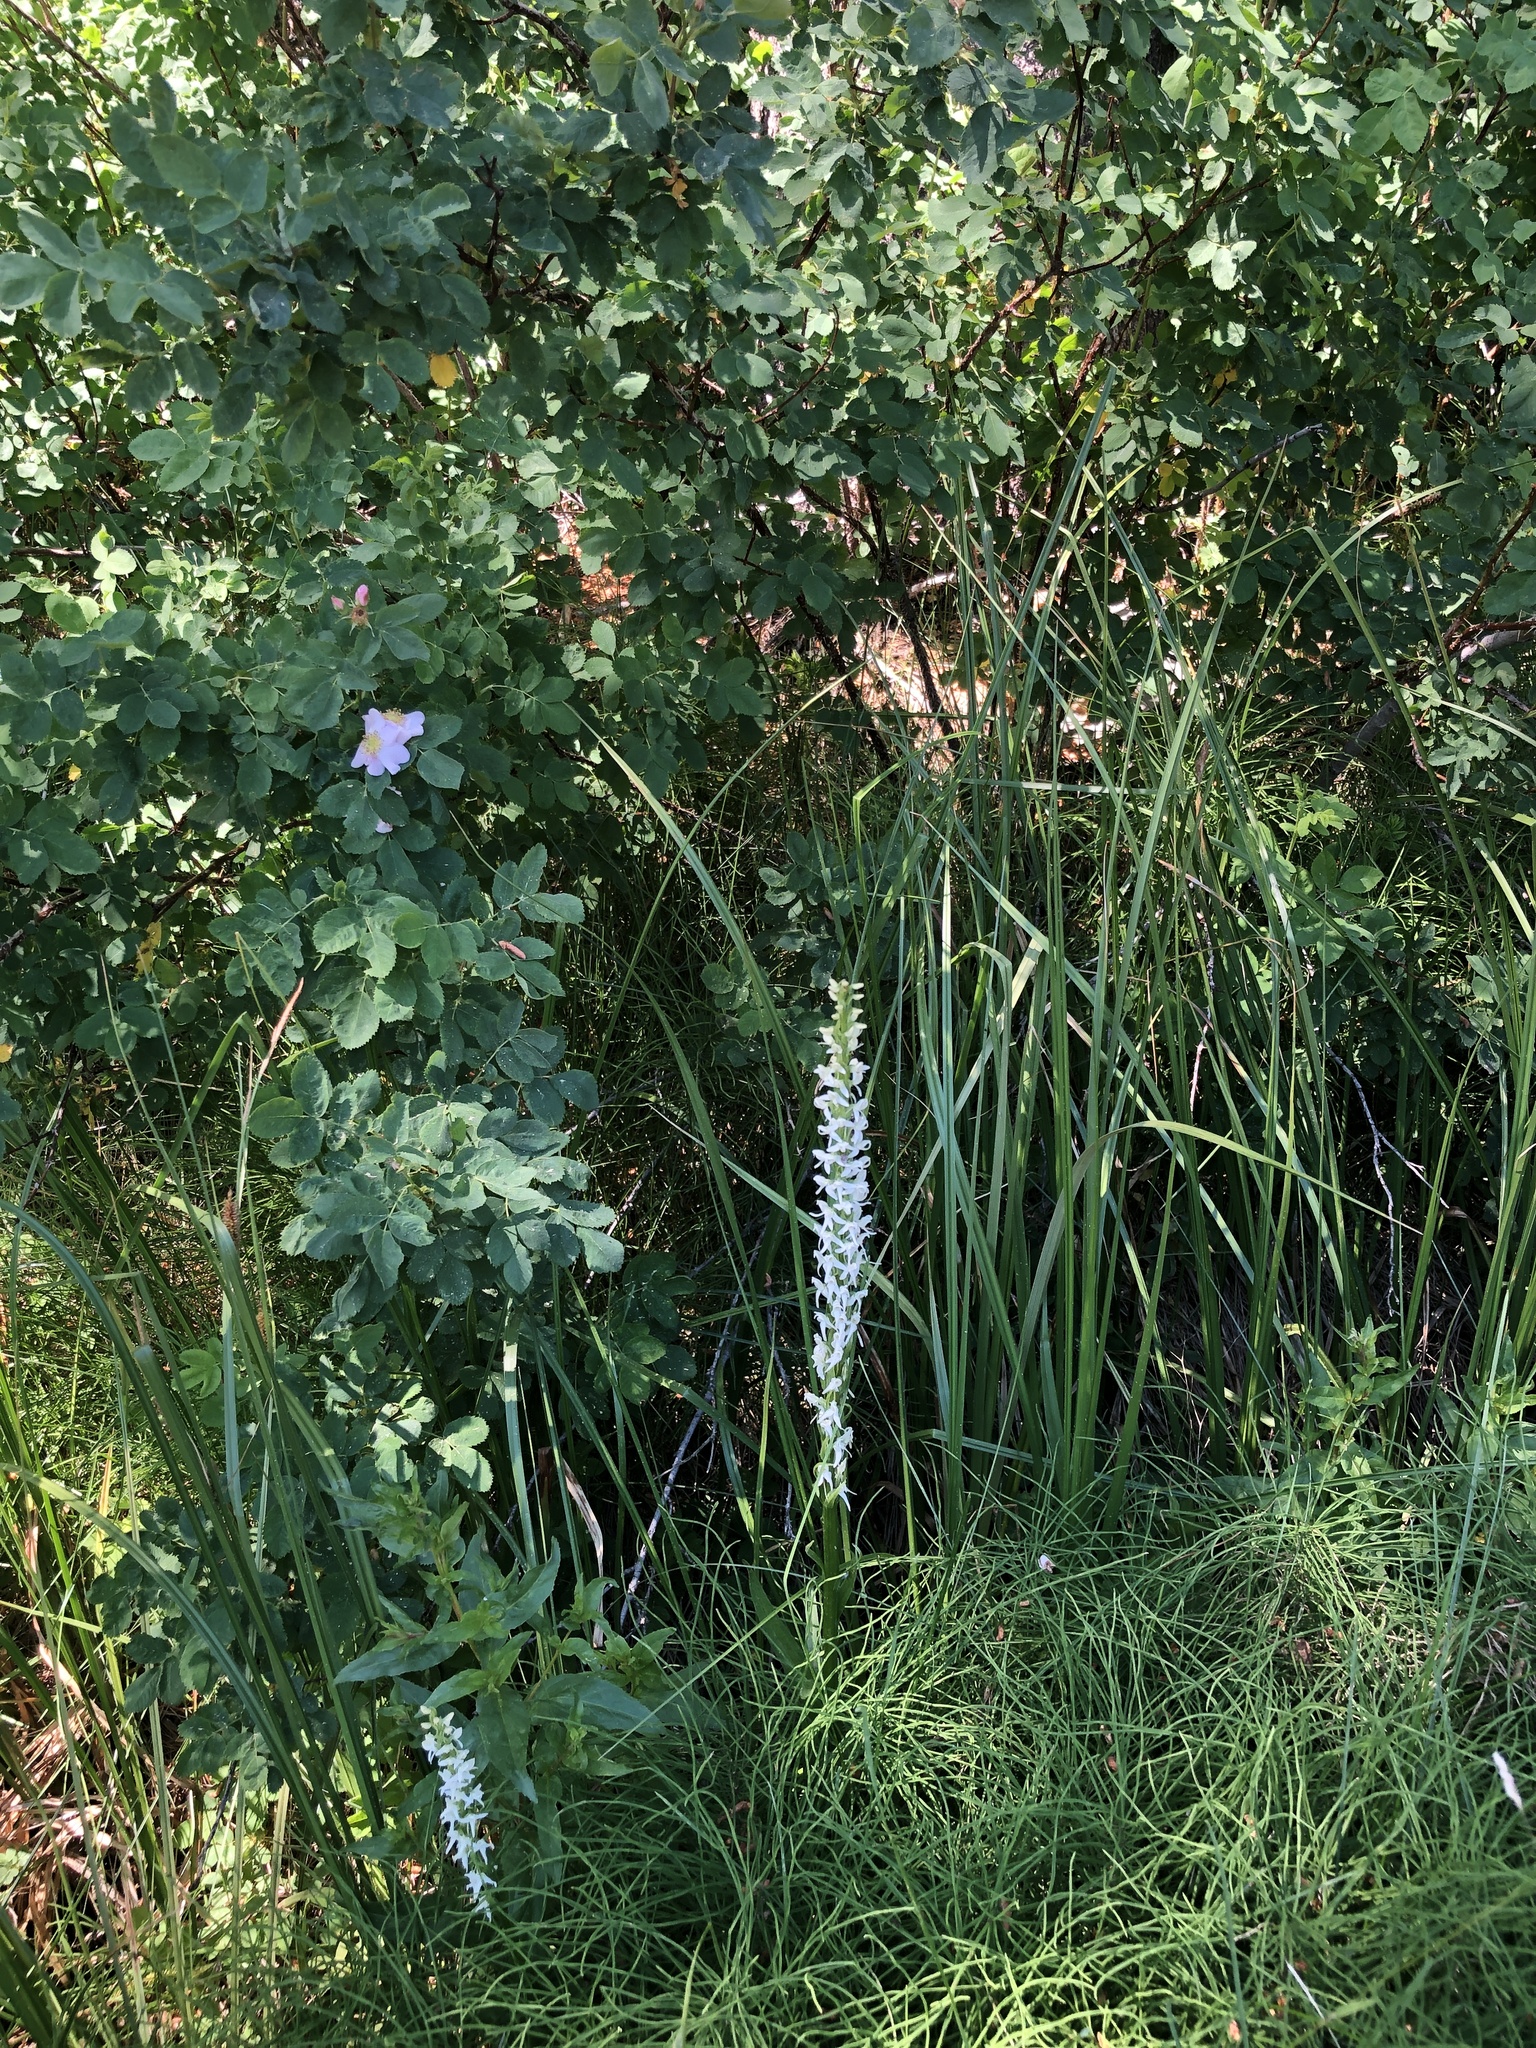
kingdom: Plantae
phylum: Tracheophyta
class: Liliopsida
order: Asparagales
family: Orchidaceae
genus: Platanthera
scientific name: Platanthera dilatata
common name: Bog candles
